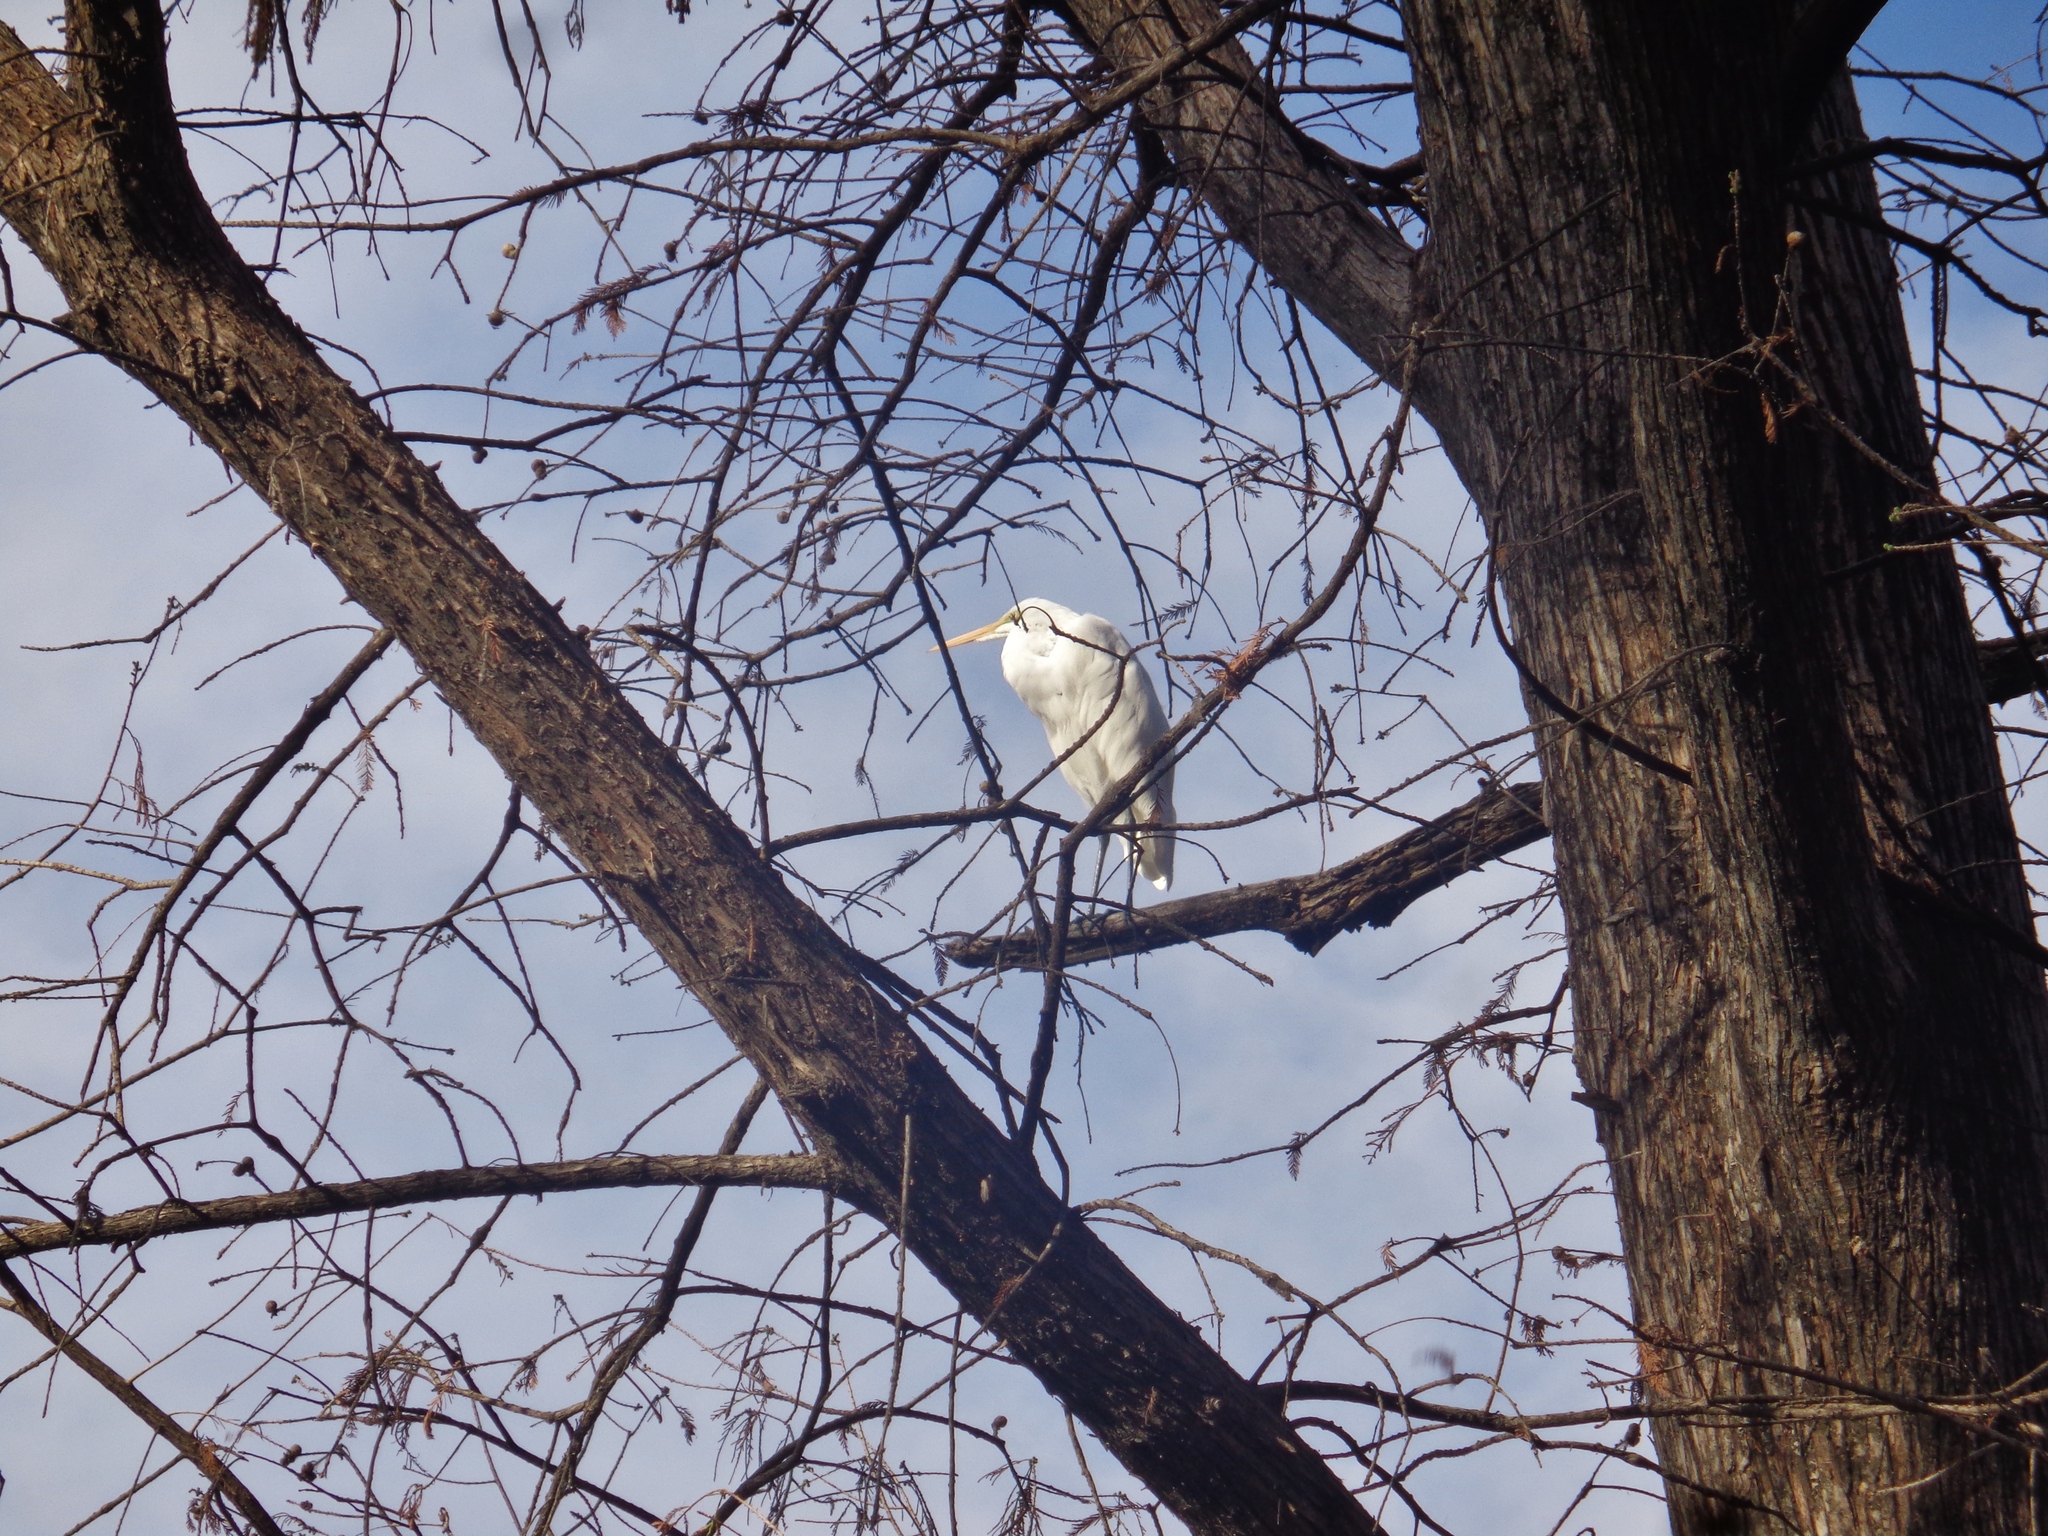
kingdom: Animalia
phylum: Chordata
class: Aves
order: Pelecaniformes
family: Ardeidae
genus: Ardea
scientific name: Ardea alba
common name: Great egret
